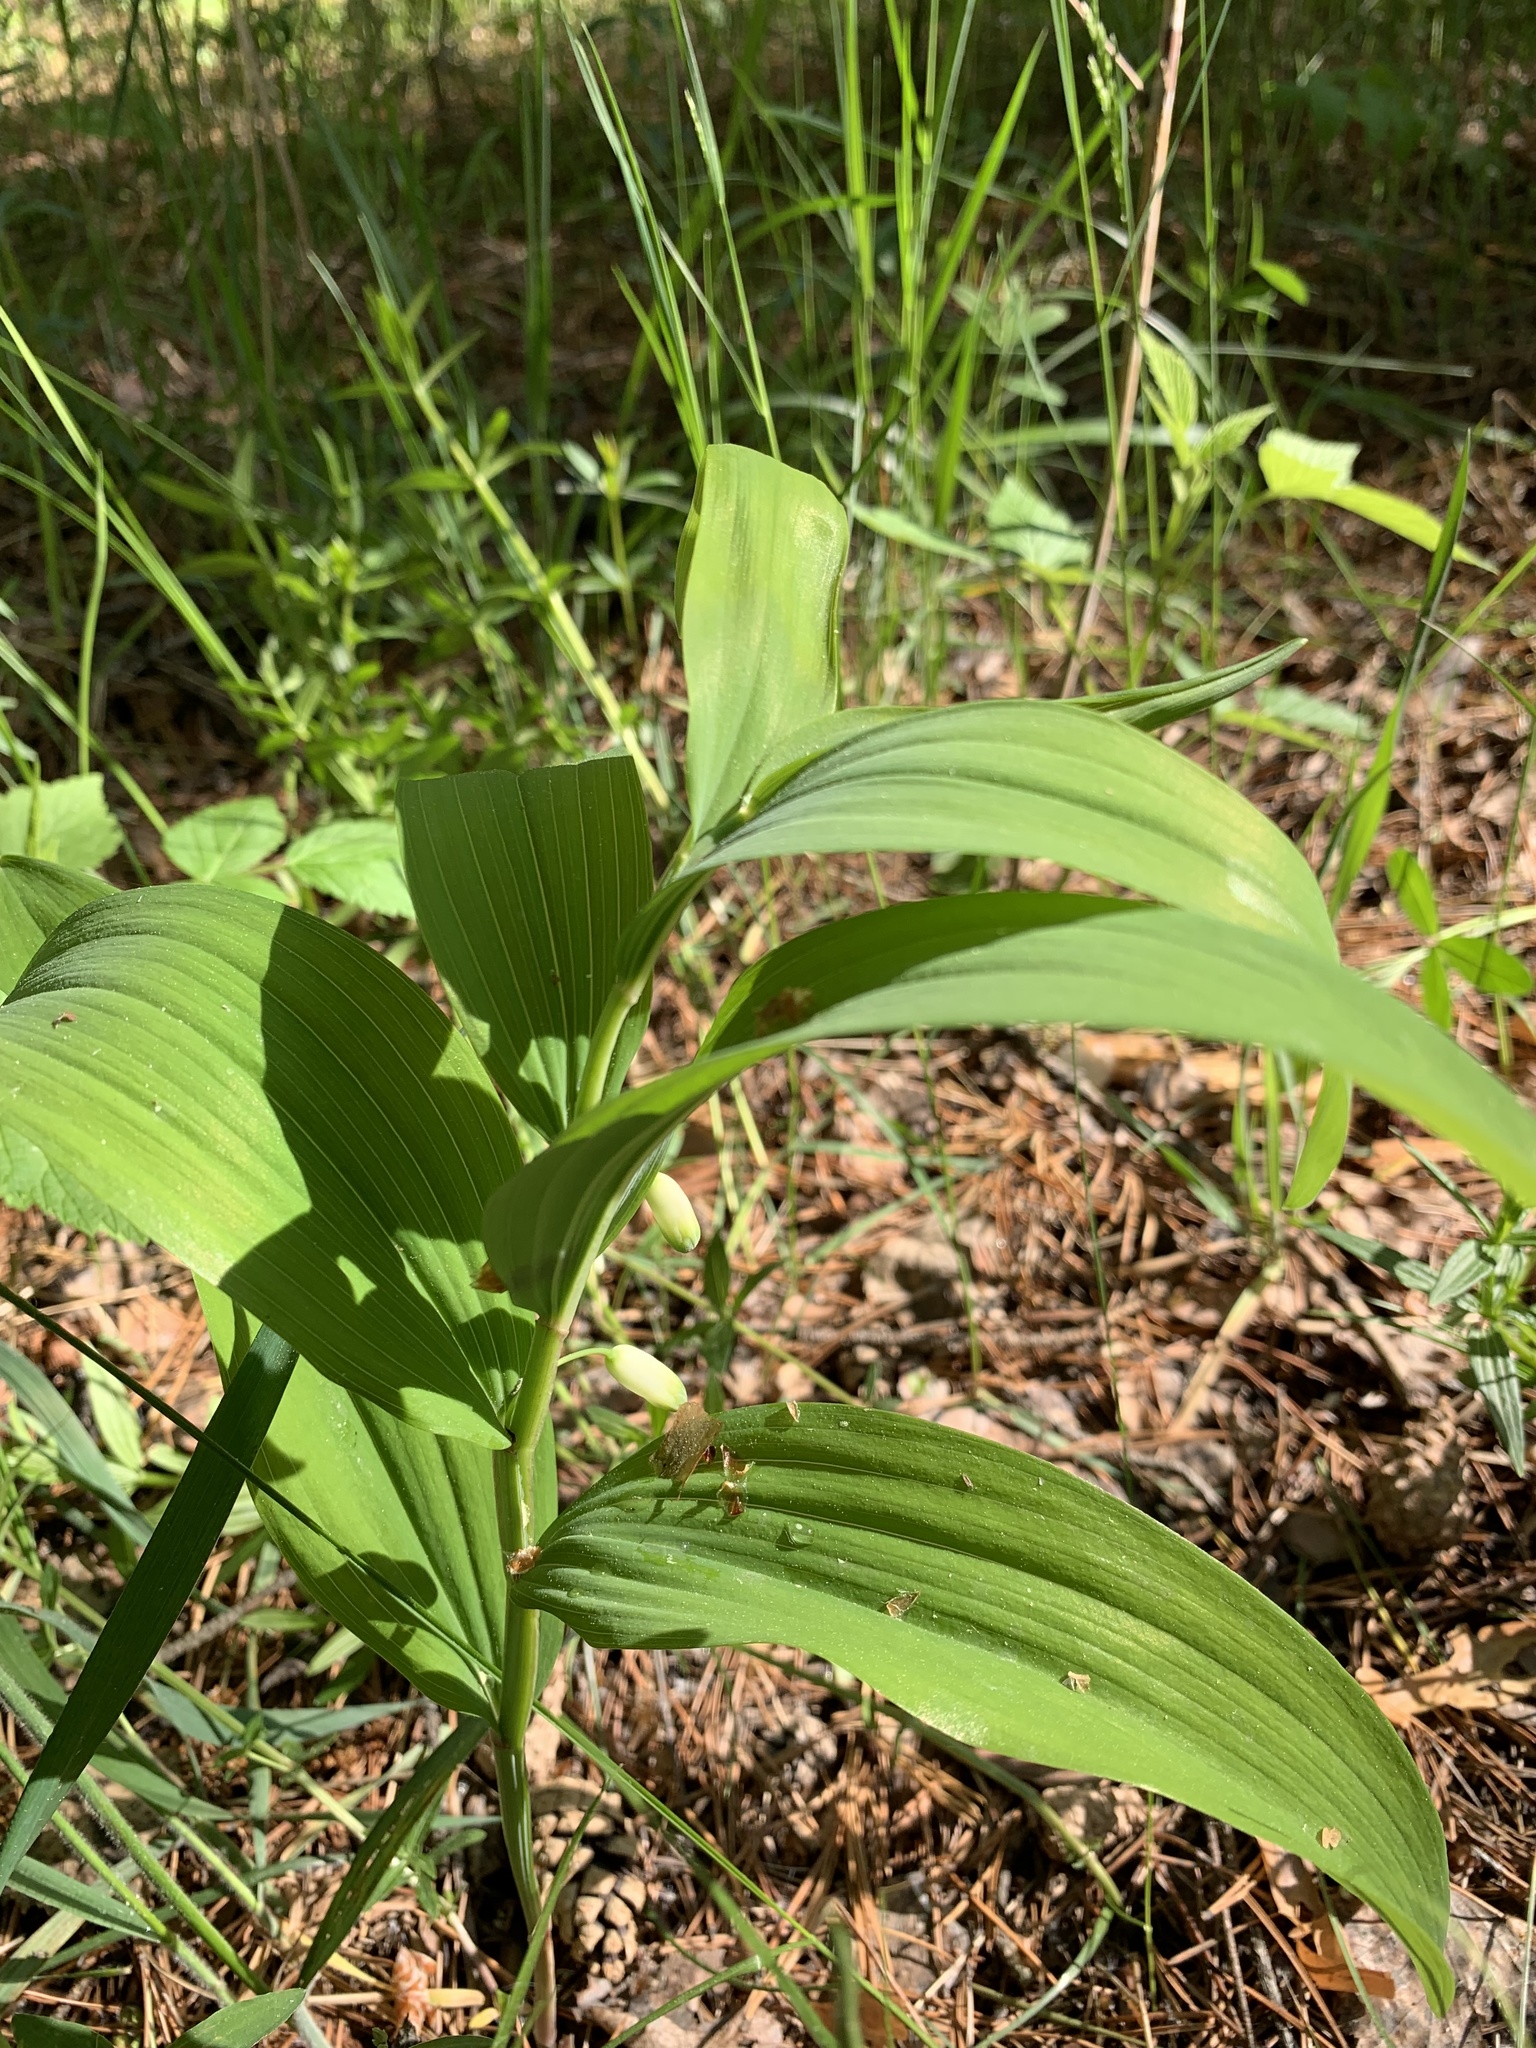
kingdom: Plantae
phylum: Tracheophyta
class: Liliopsida
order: Asparagales
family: Asparagaceae
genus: Polygonatum
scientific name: Polygonatum odoratum
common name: Angular solomon's-seal
